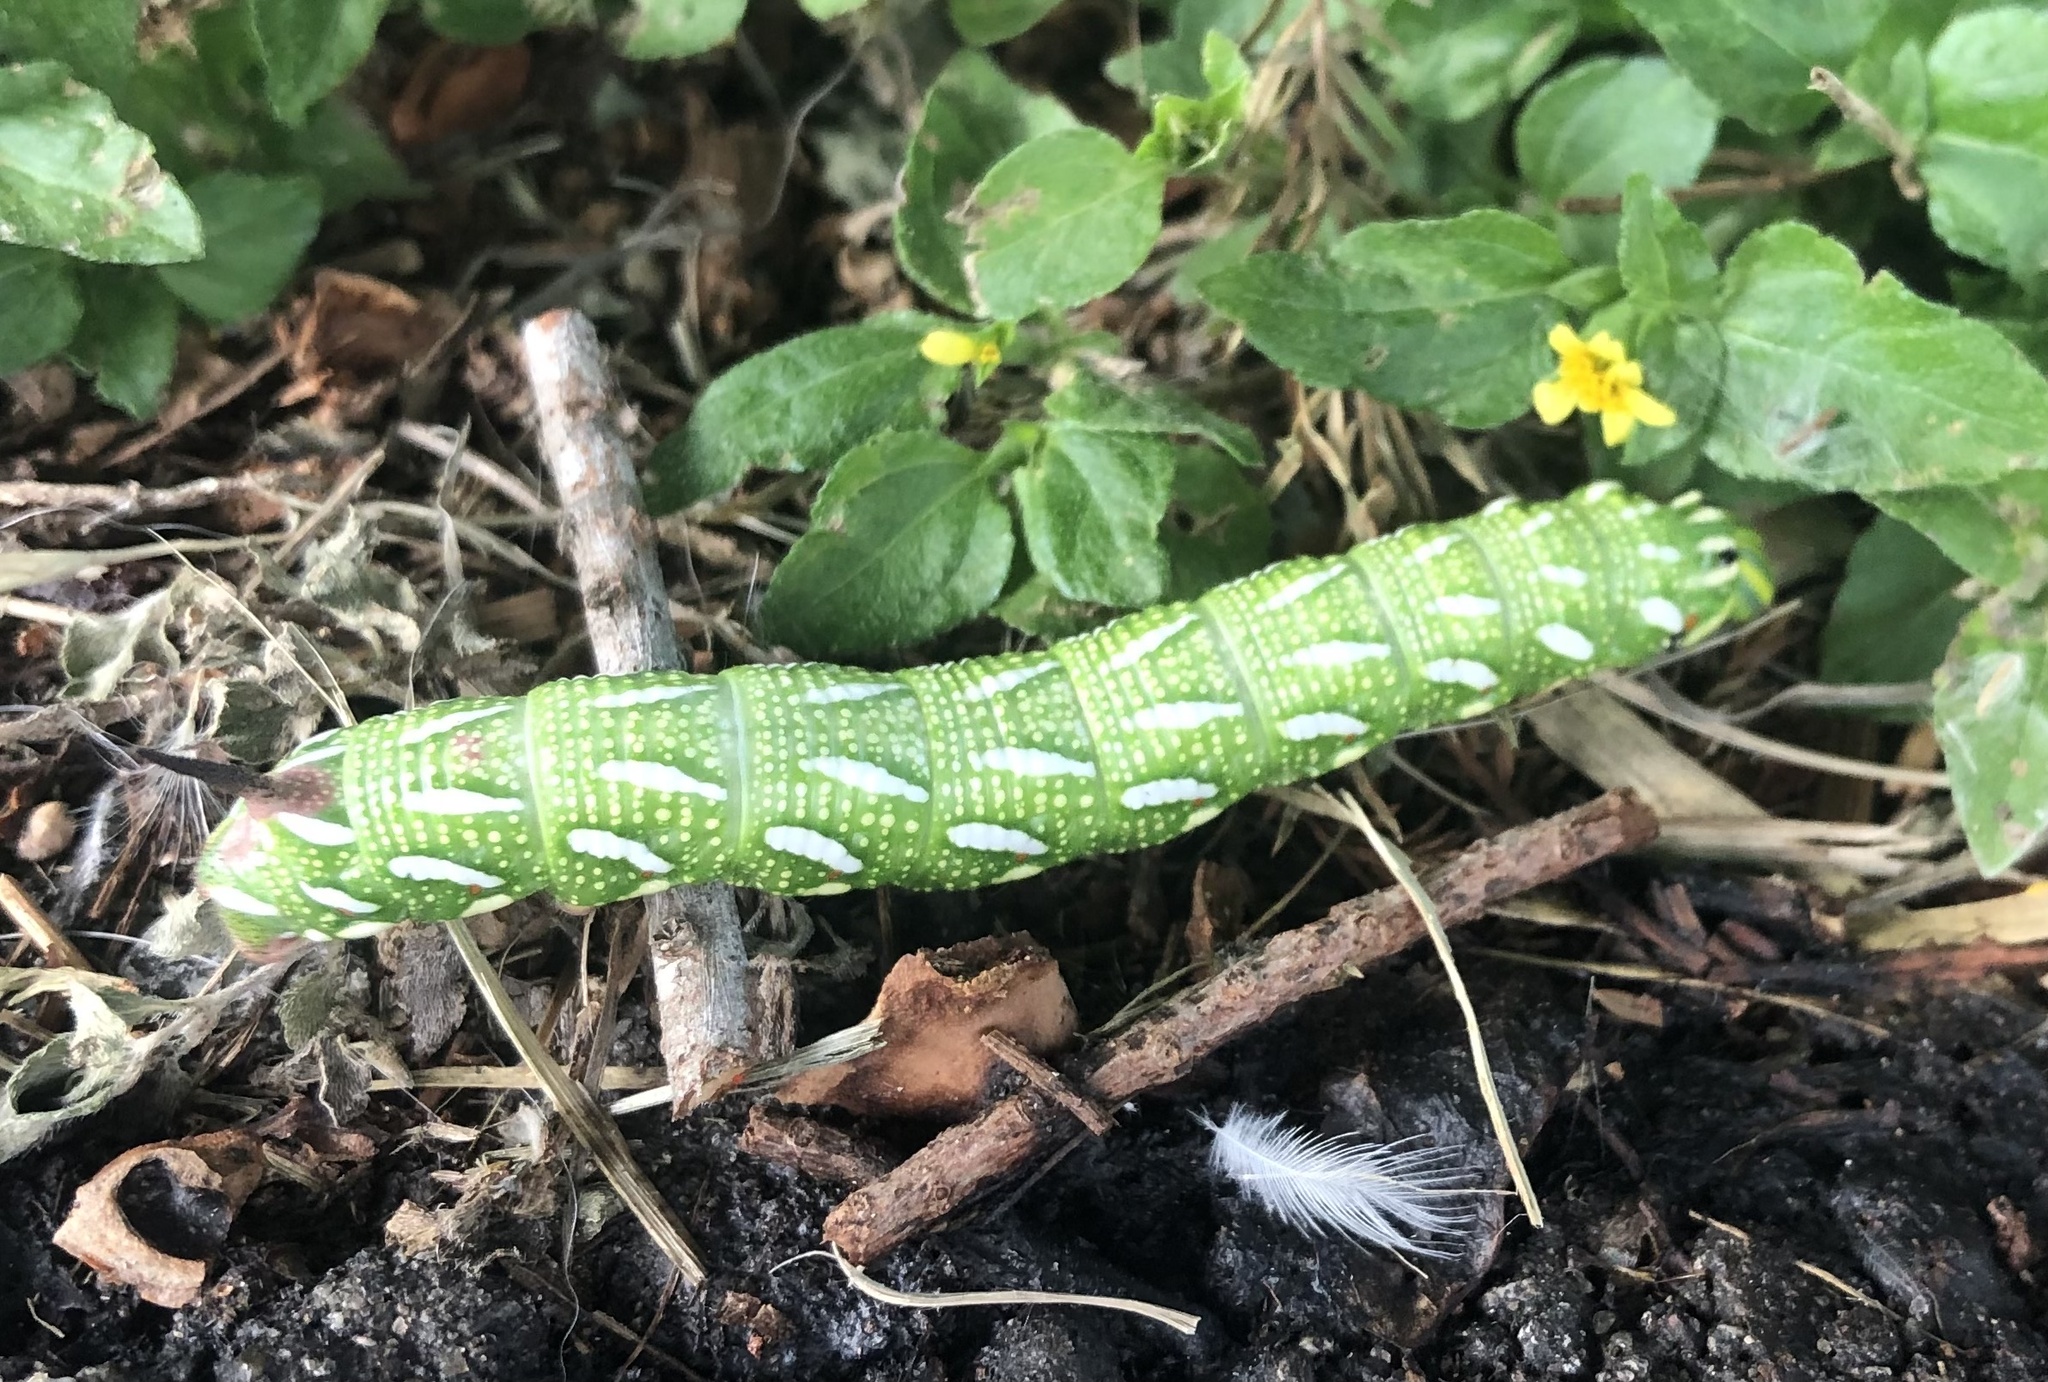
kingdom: Animalia
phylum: Arthropoda
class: Insecta
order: Lepidoptera
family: Sphingidae
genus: Isoparce
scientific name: Isoparce cupressi
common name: Cypress sphinx
